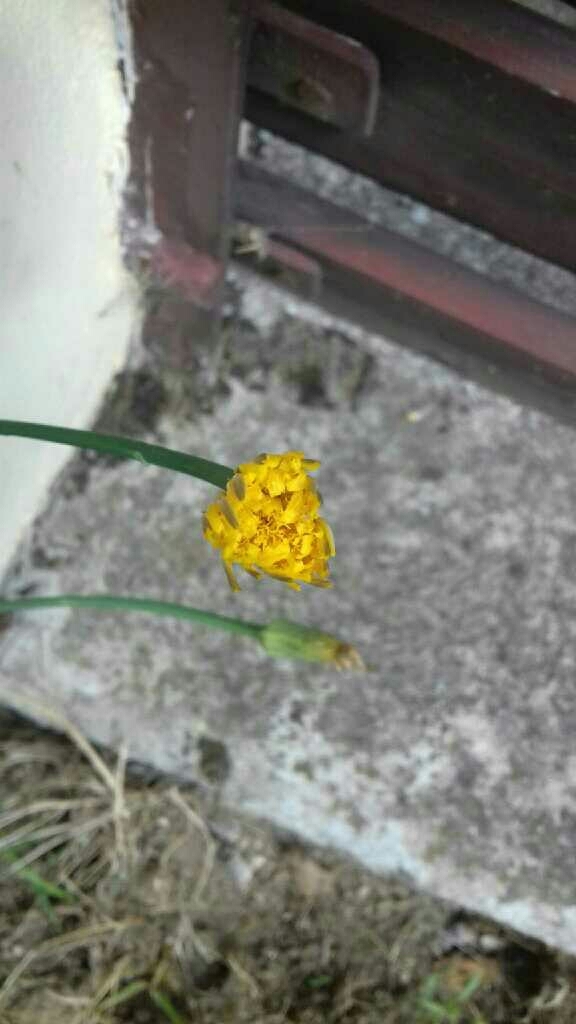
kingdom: Plantae
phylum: Tracheophyta
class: Magnoliopsida
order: Asterales
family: Asteraceae
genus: Hypochaeris
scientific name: Hypochaeris radicata
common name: Flatweed
